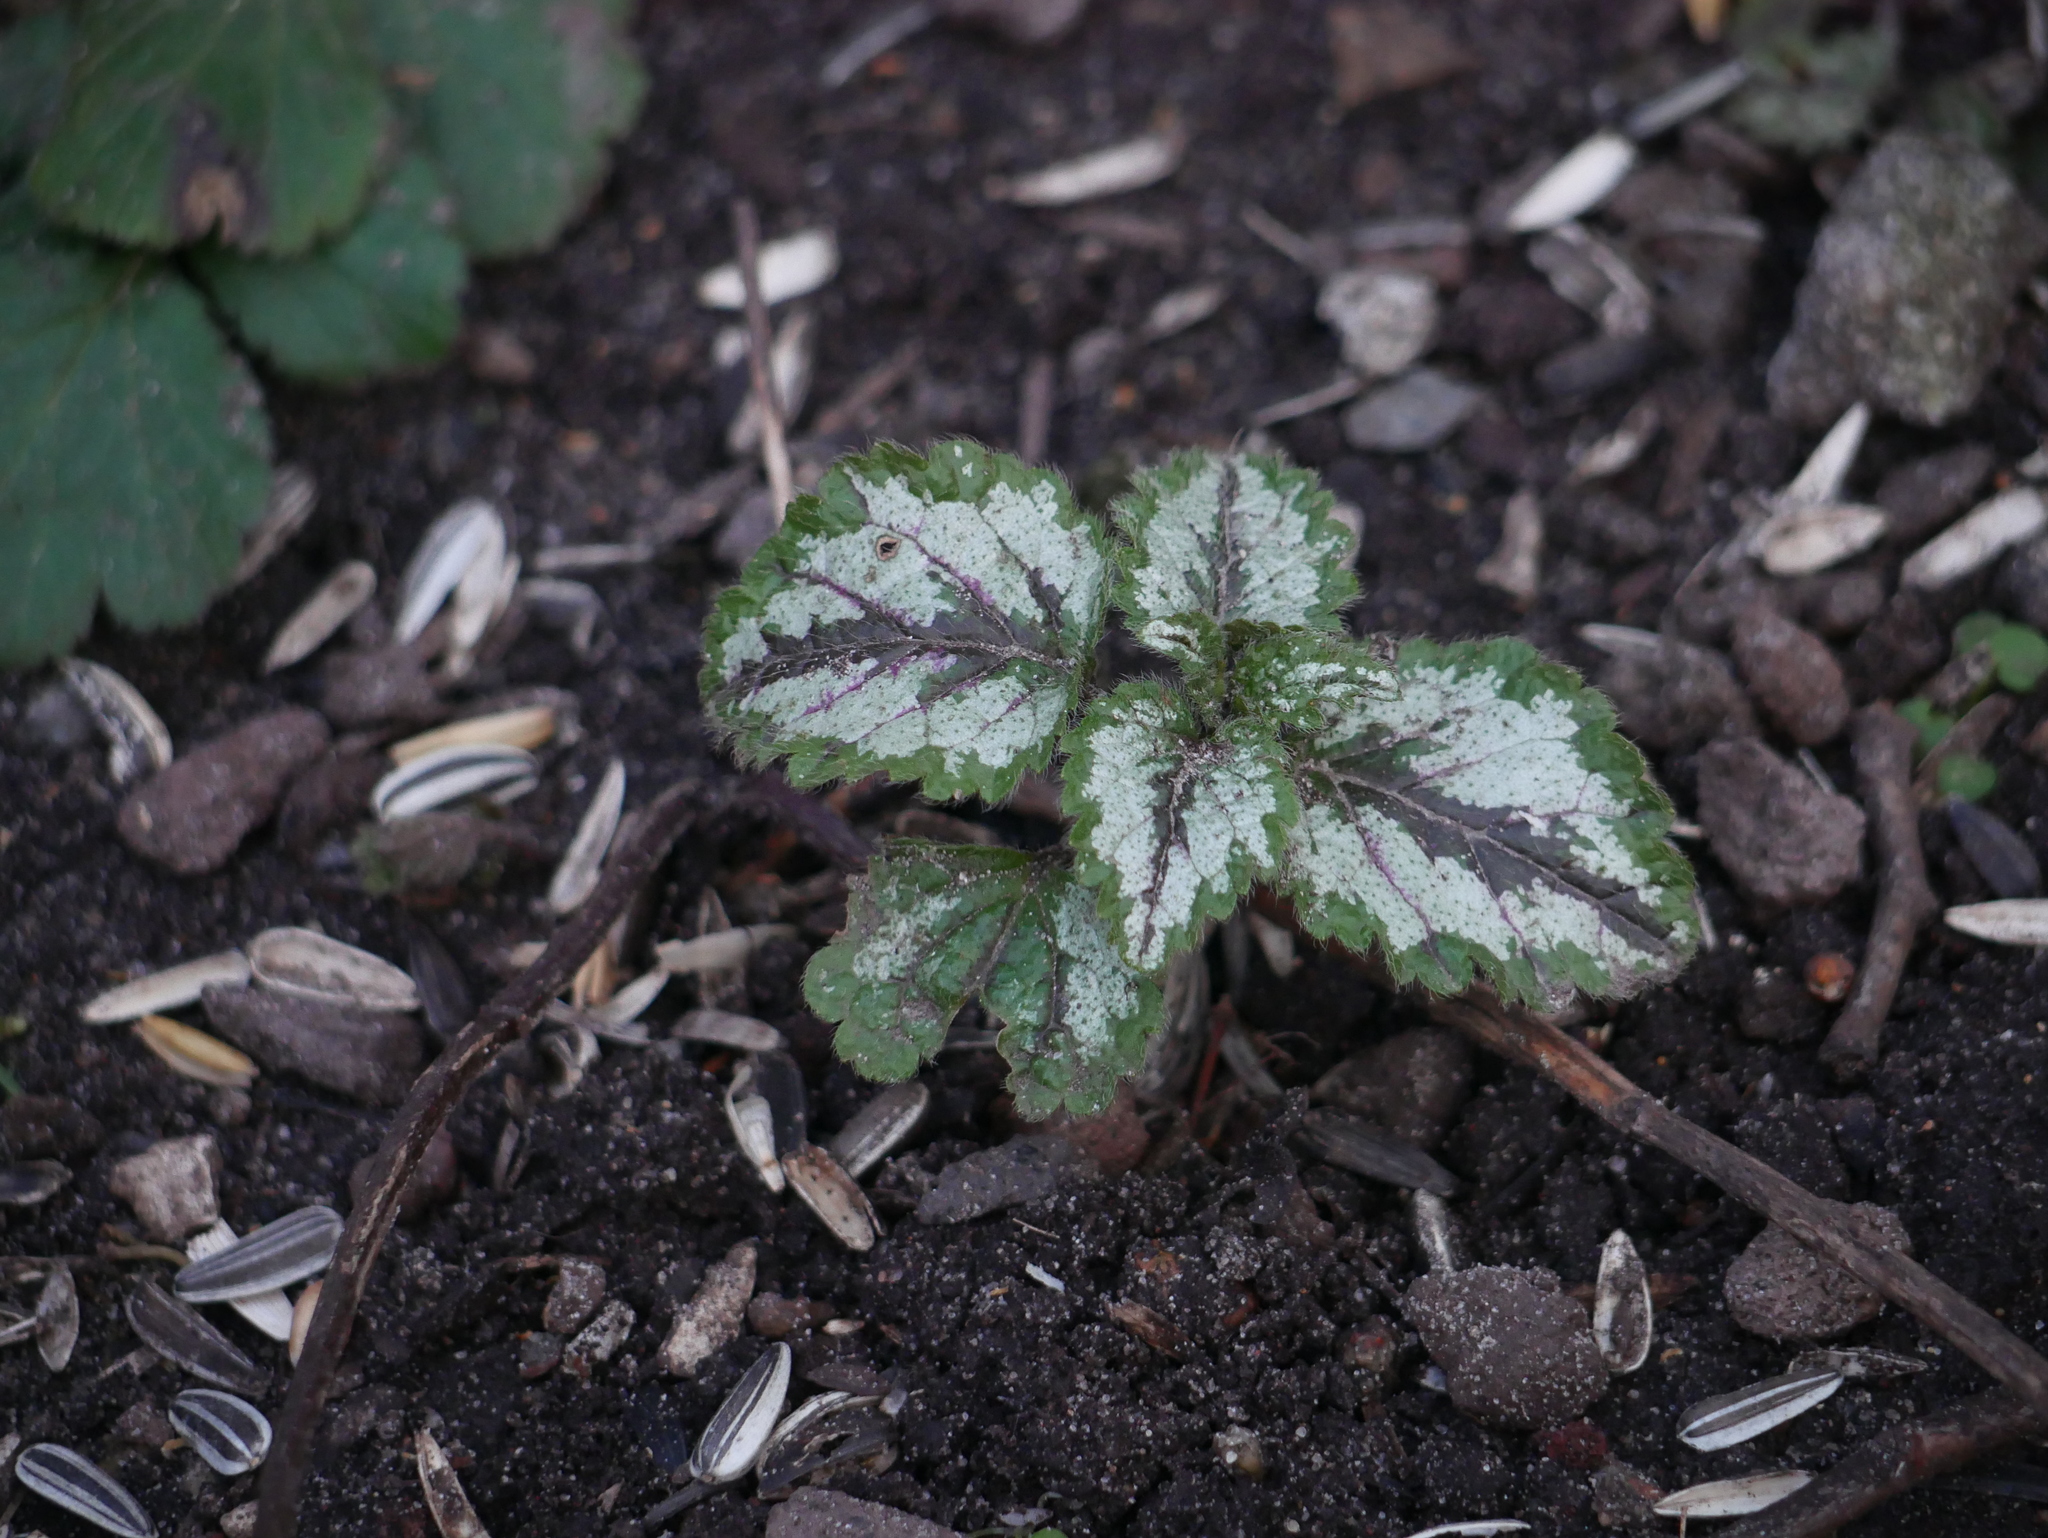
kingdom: Plantae
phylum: Tracheophyta
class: Magnoliopsida
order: Lamiales
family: Lamiaceae
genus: Lamium
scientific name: Lamium galeobdolon
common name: Yellow archangel
